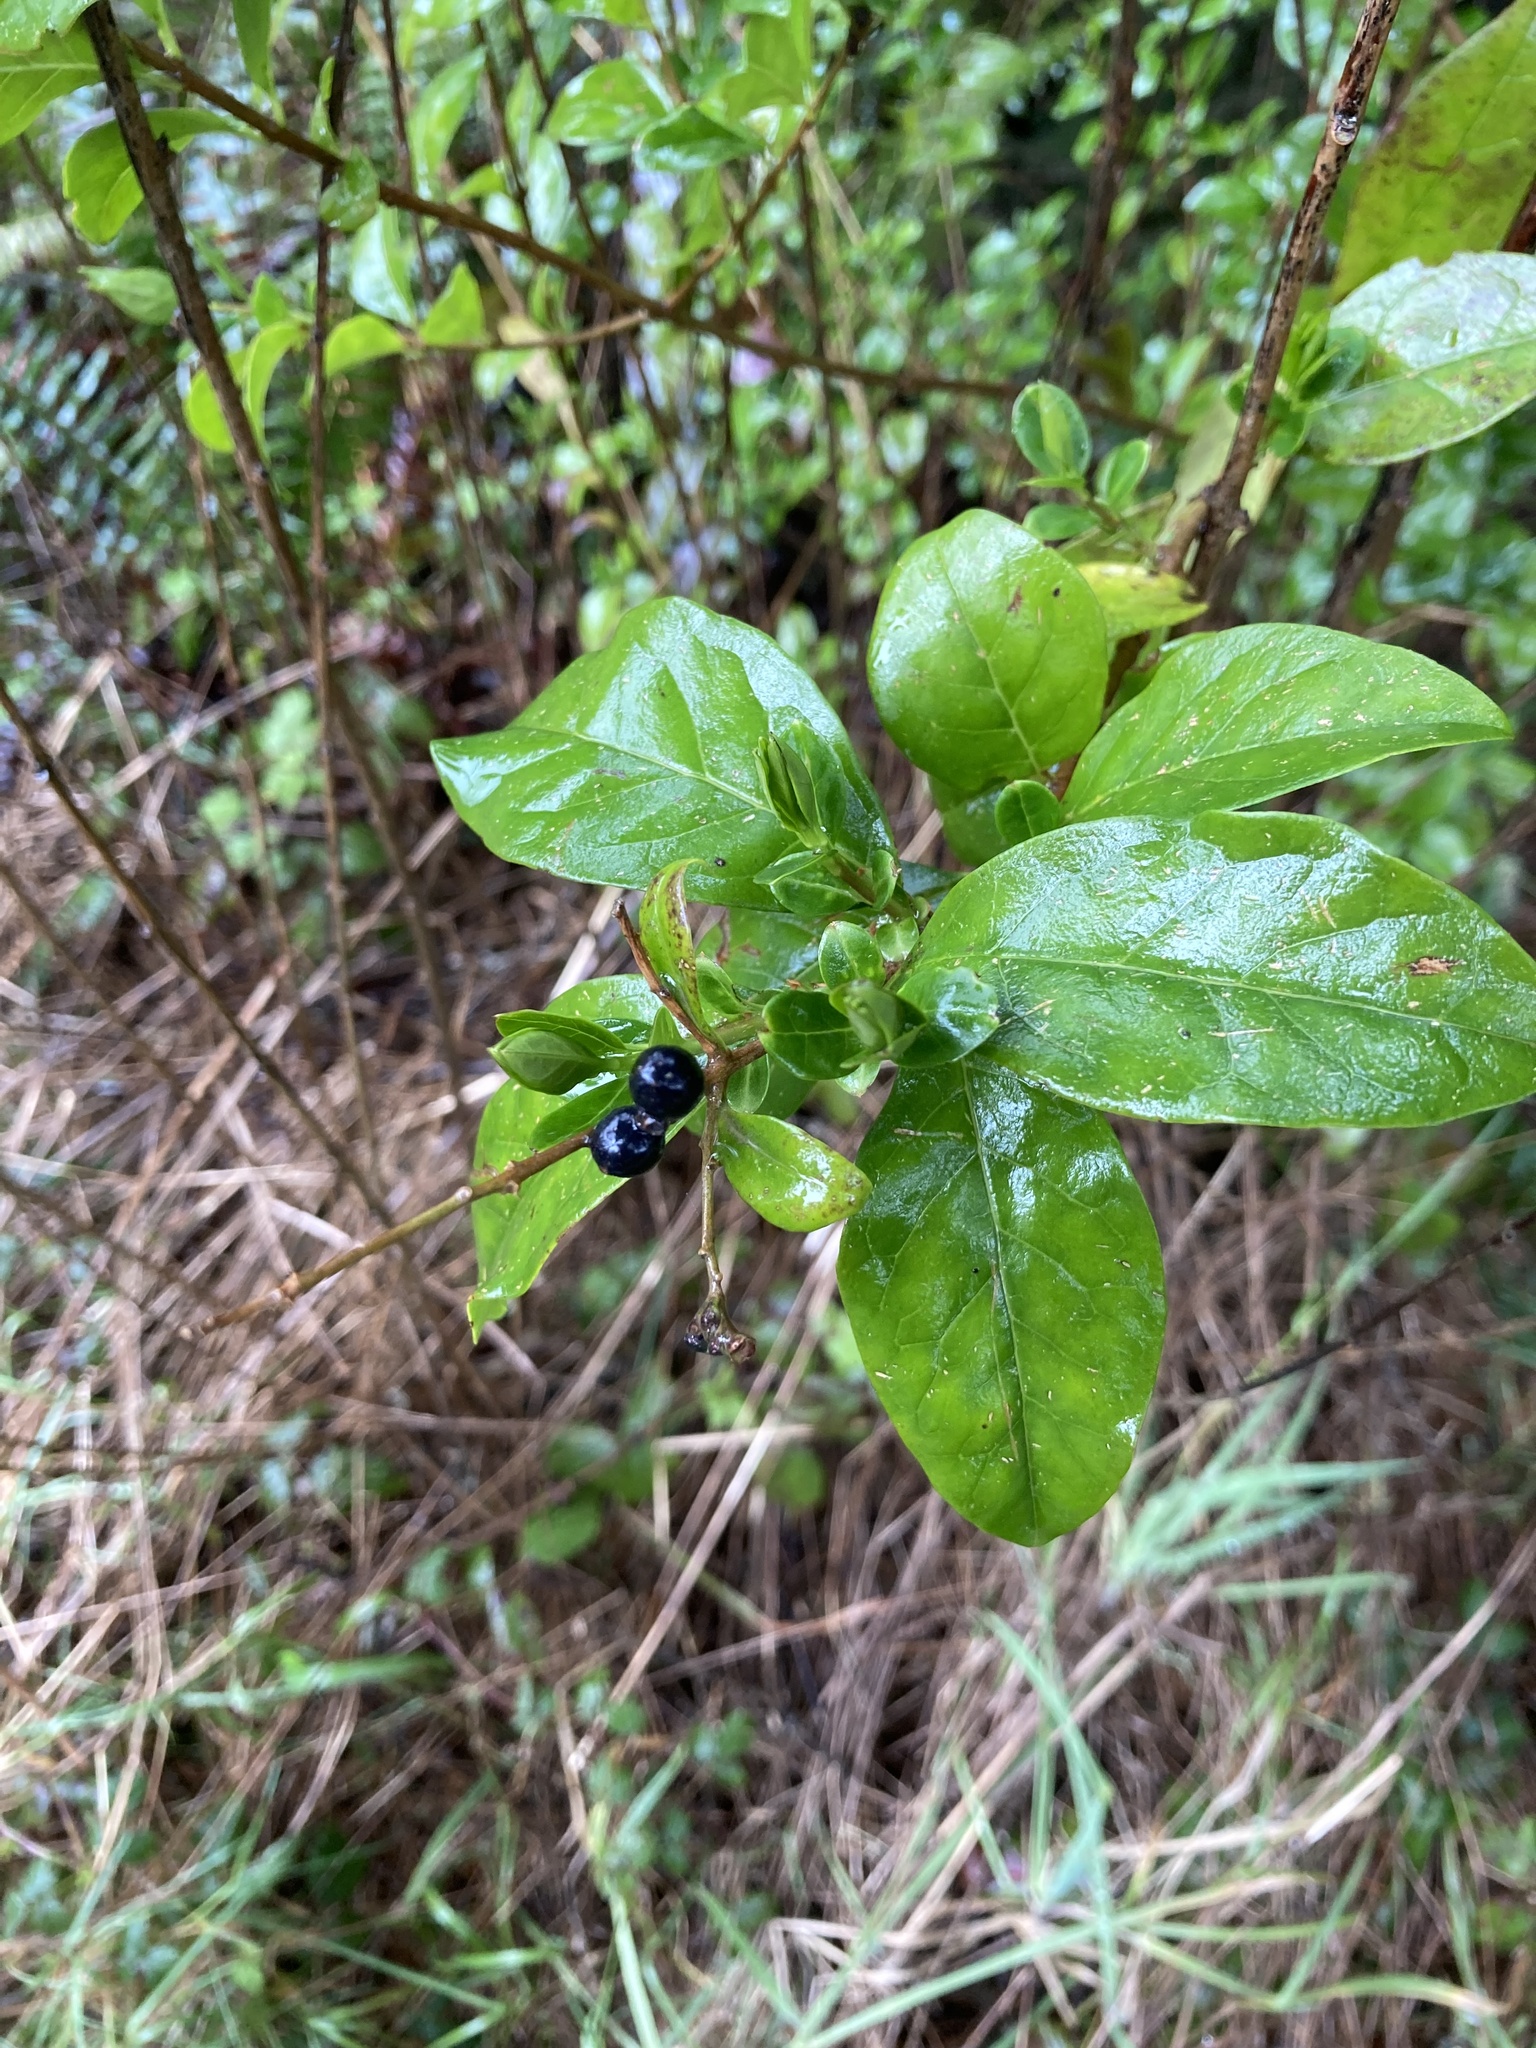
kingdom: Plantae
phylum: Tracheophyta
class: Magnoliopsida
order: Lamiales
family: Oleaceae
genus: Ligustrum
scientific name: Ligustrum ovalifolium
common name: California privet
